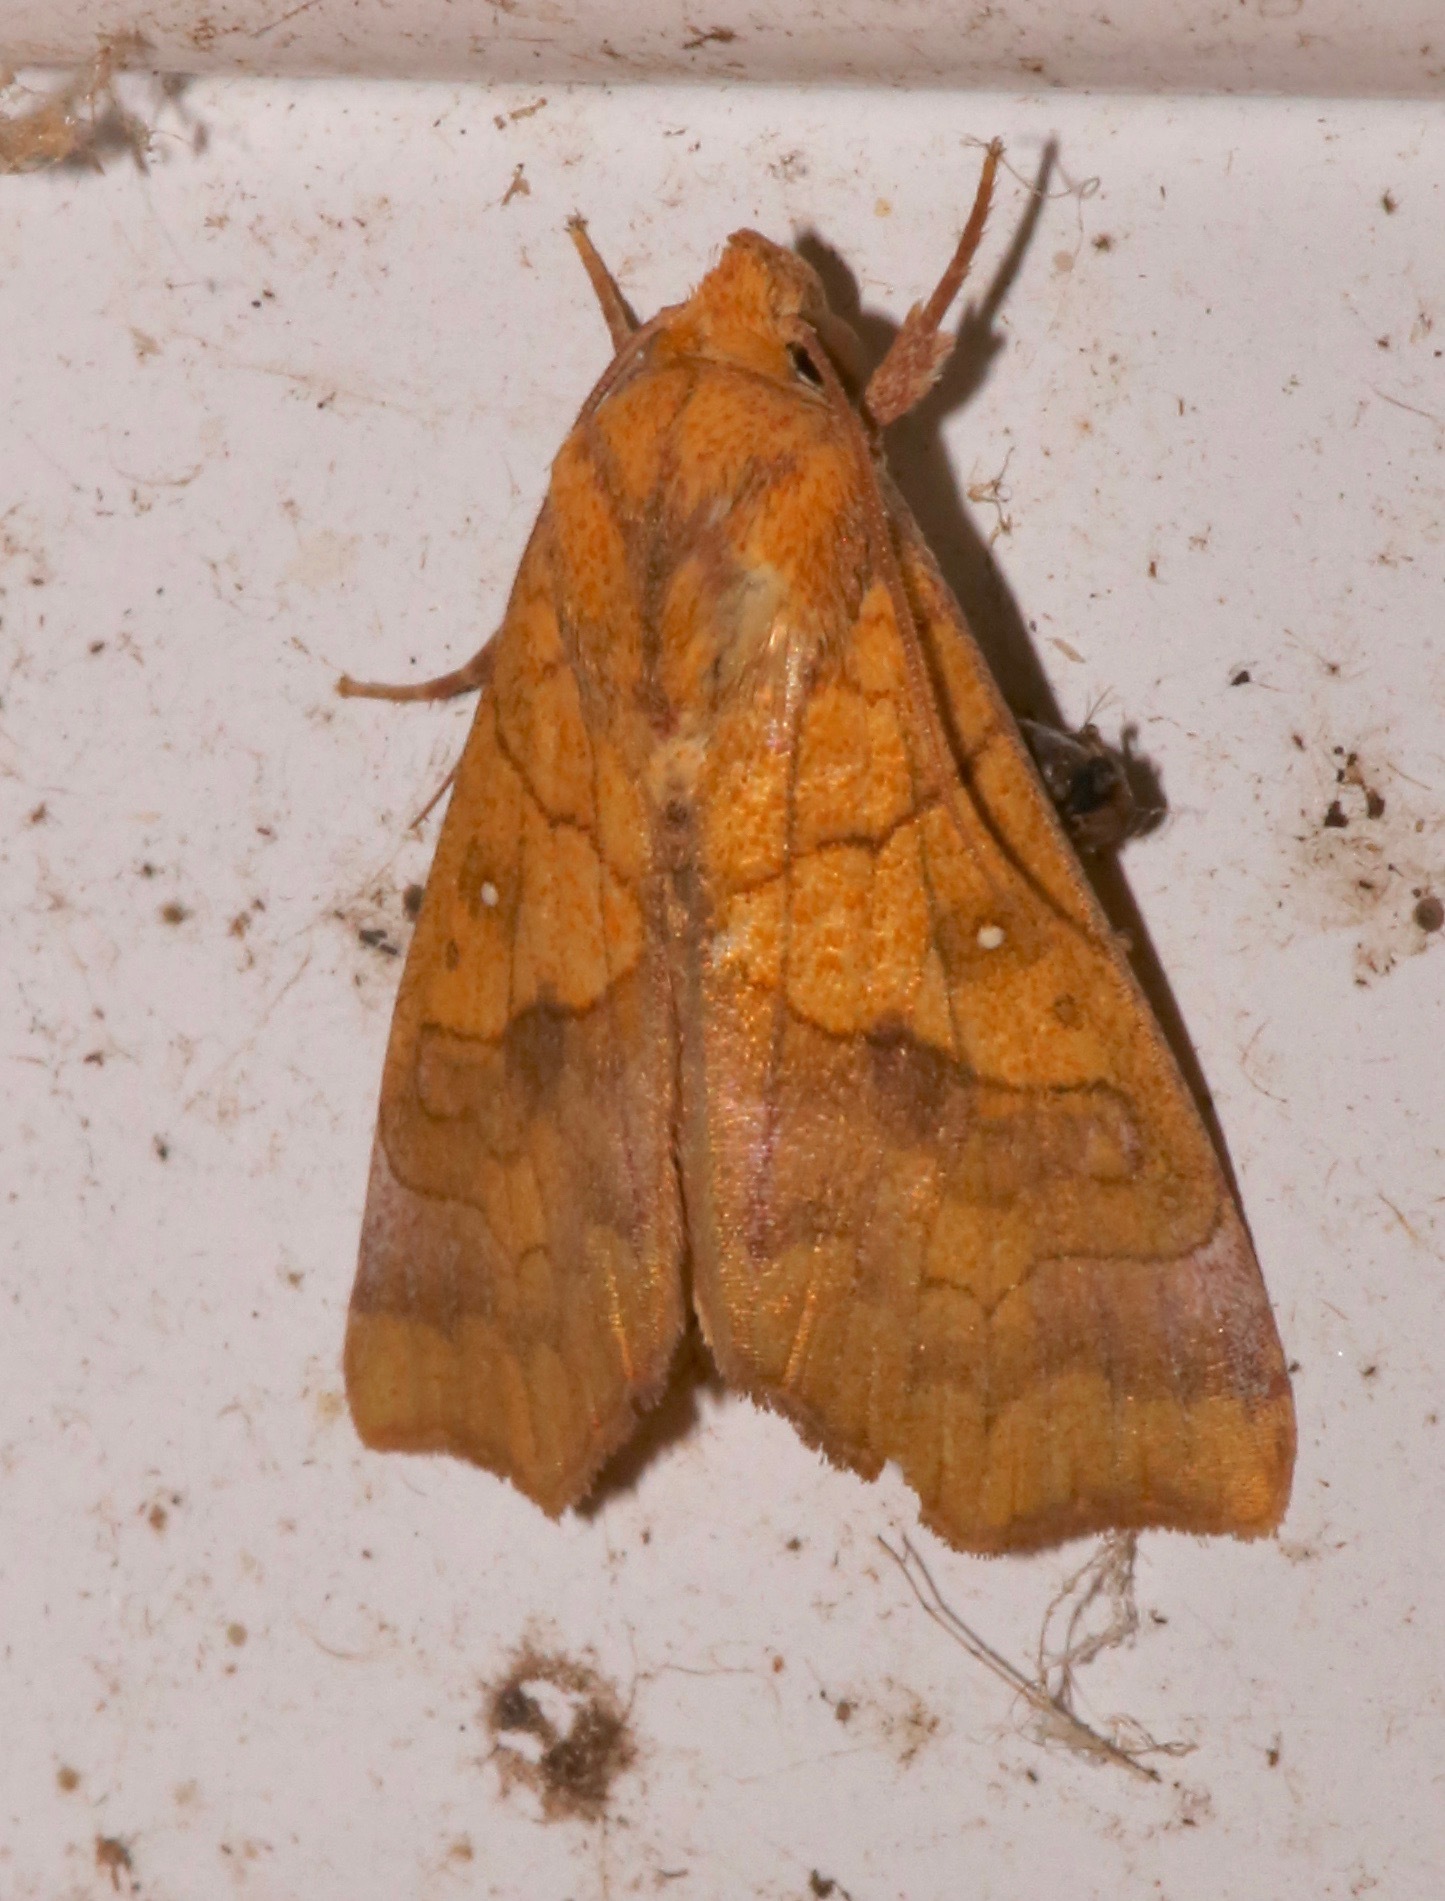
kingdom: Animalia
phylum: Arthropoda
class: Insecta
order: Lepidoptera
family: Erebidae
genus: Anomis
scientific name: Anomis erosa
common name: Yellow scallop moth
